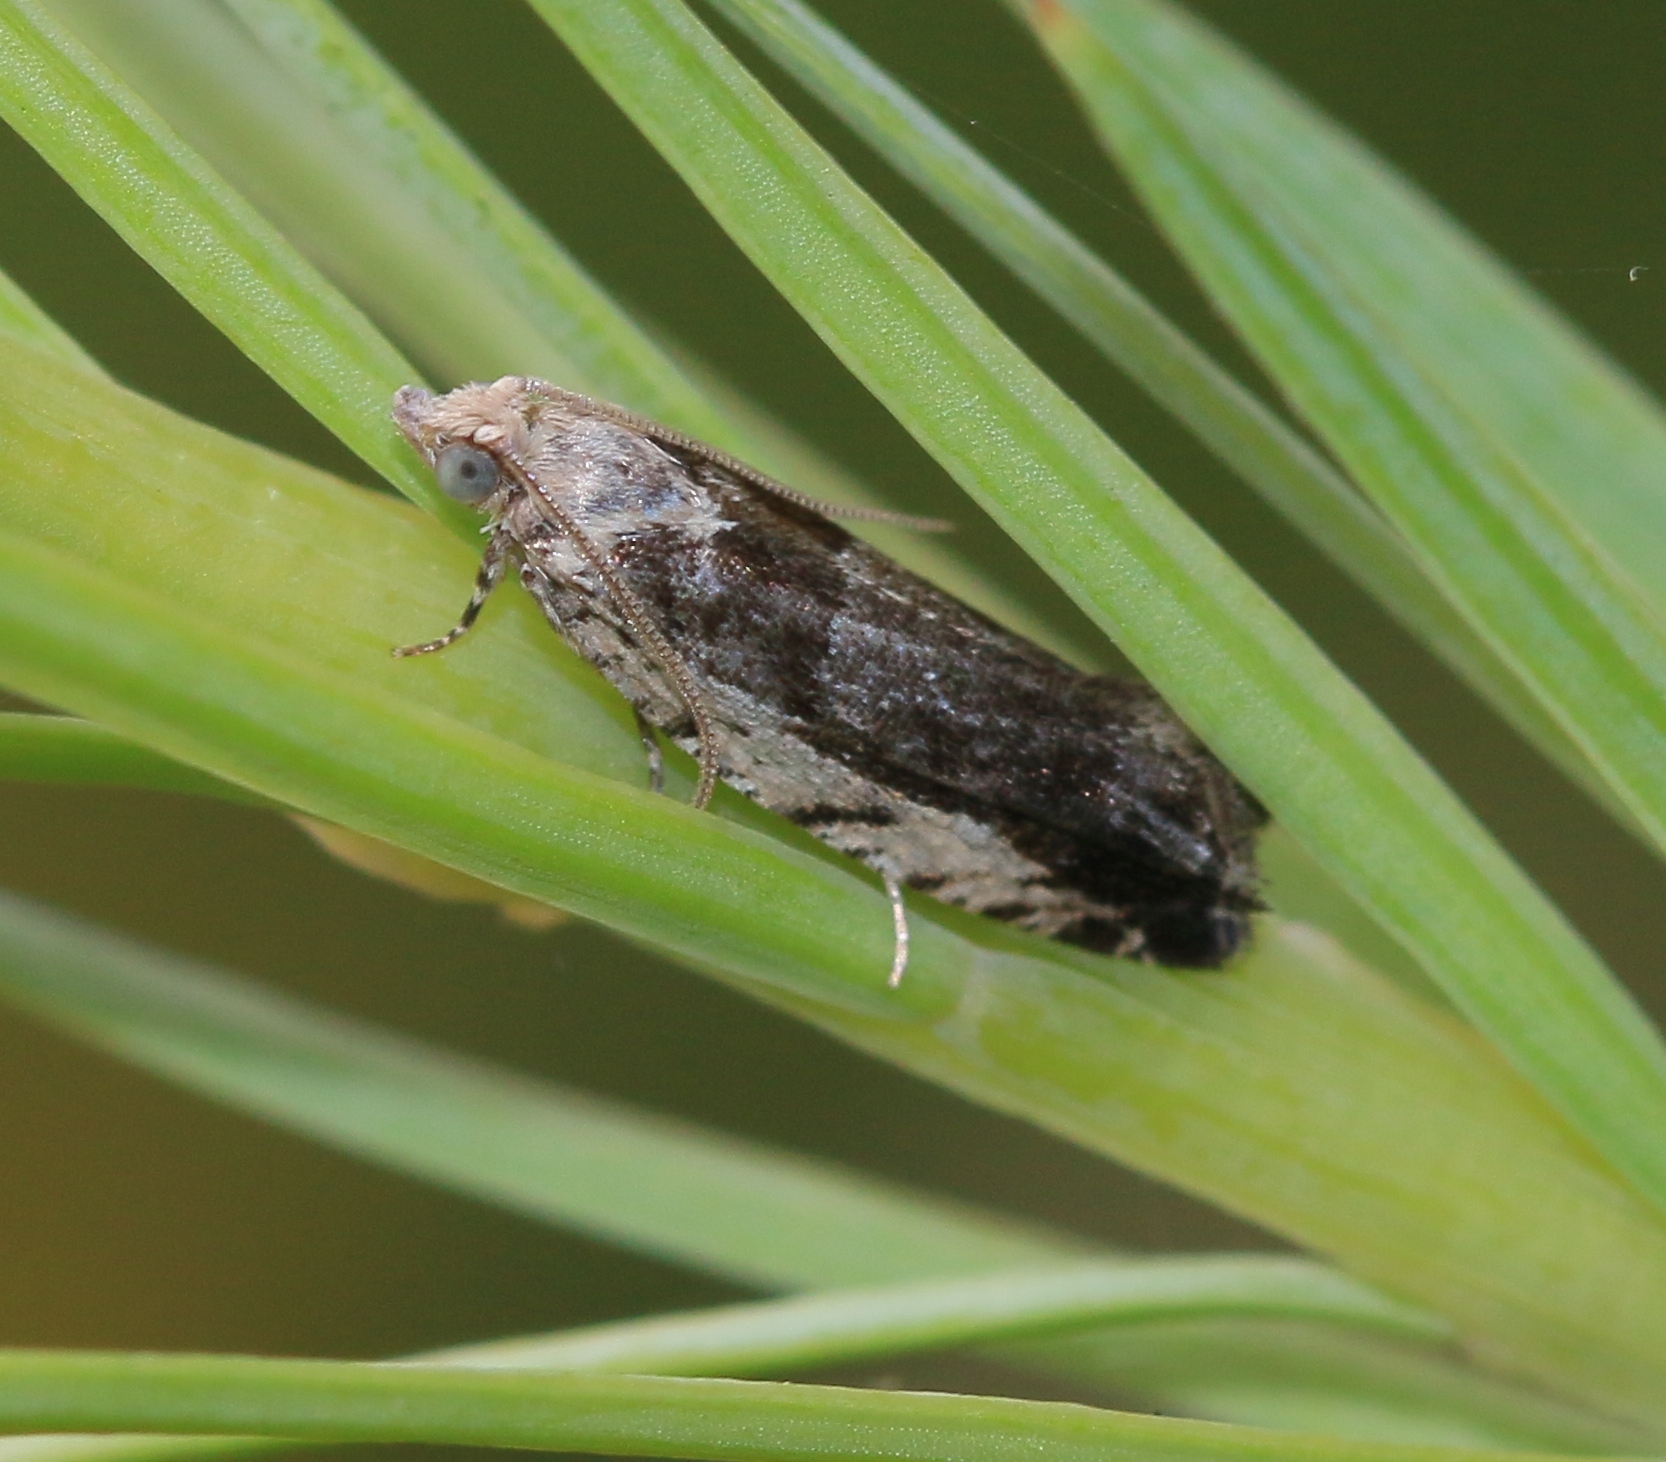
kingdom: Animalia
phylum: Arthropoda
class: Insecta
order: Lepidoptera
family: Tortricidae
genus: Epinotia
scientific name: Epinotia ramella
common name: Small birch bell
